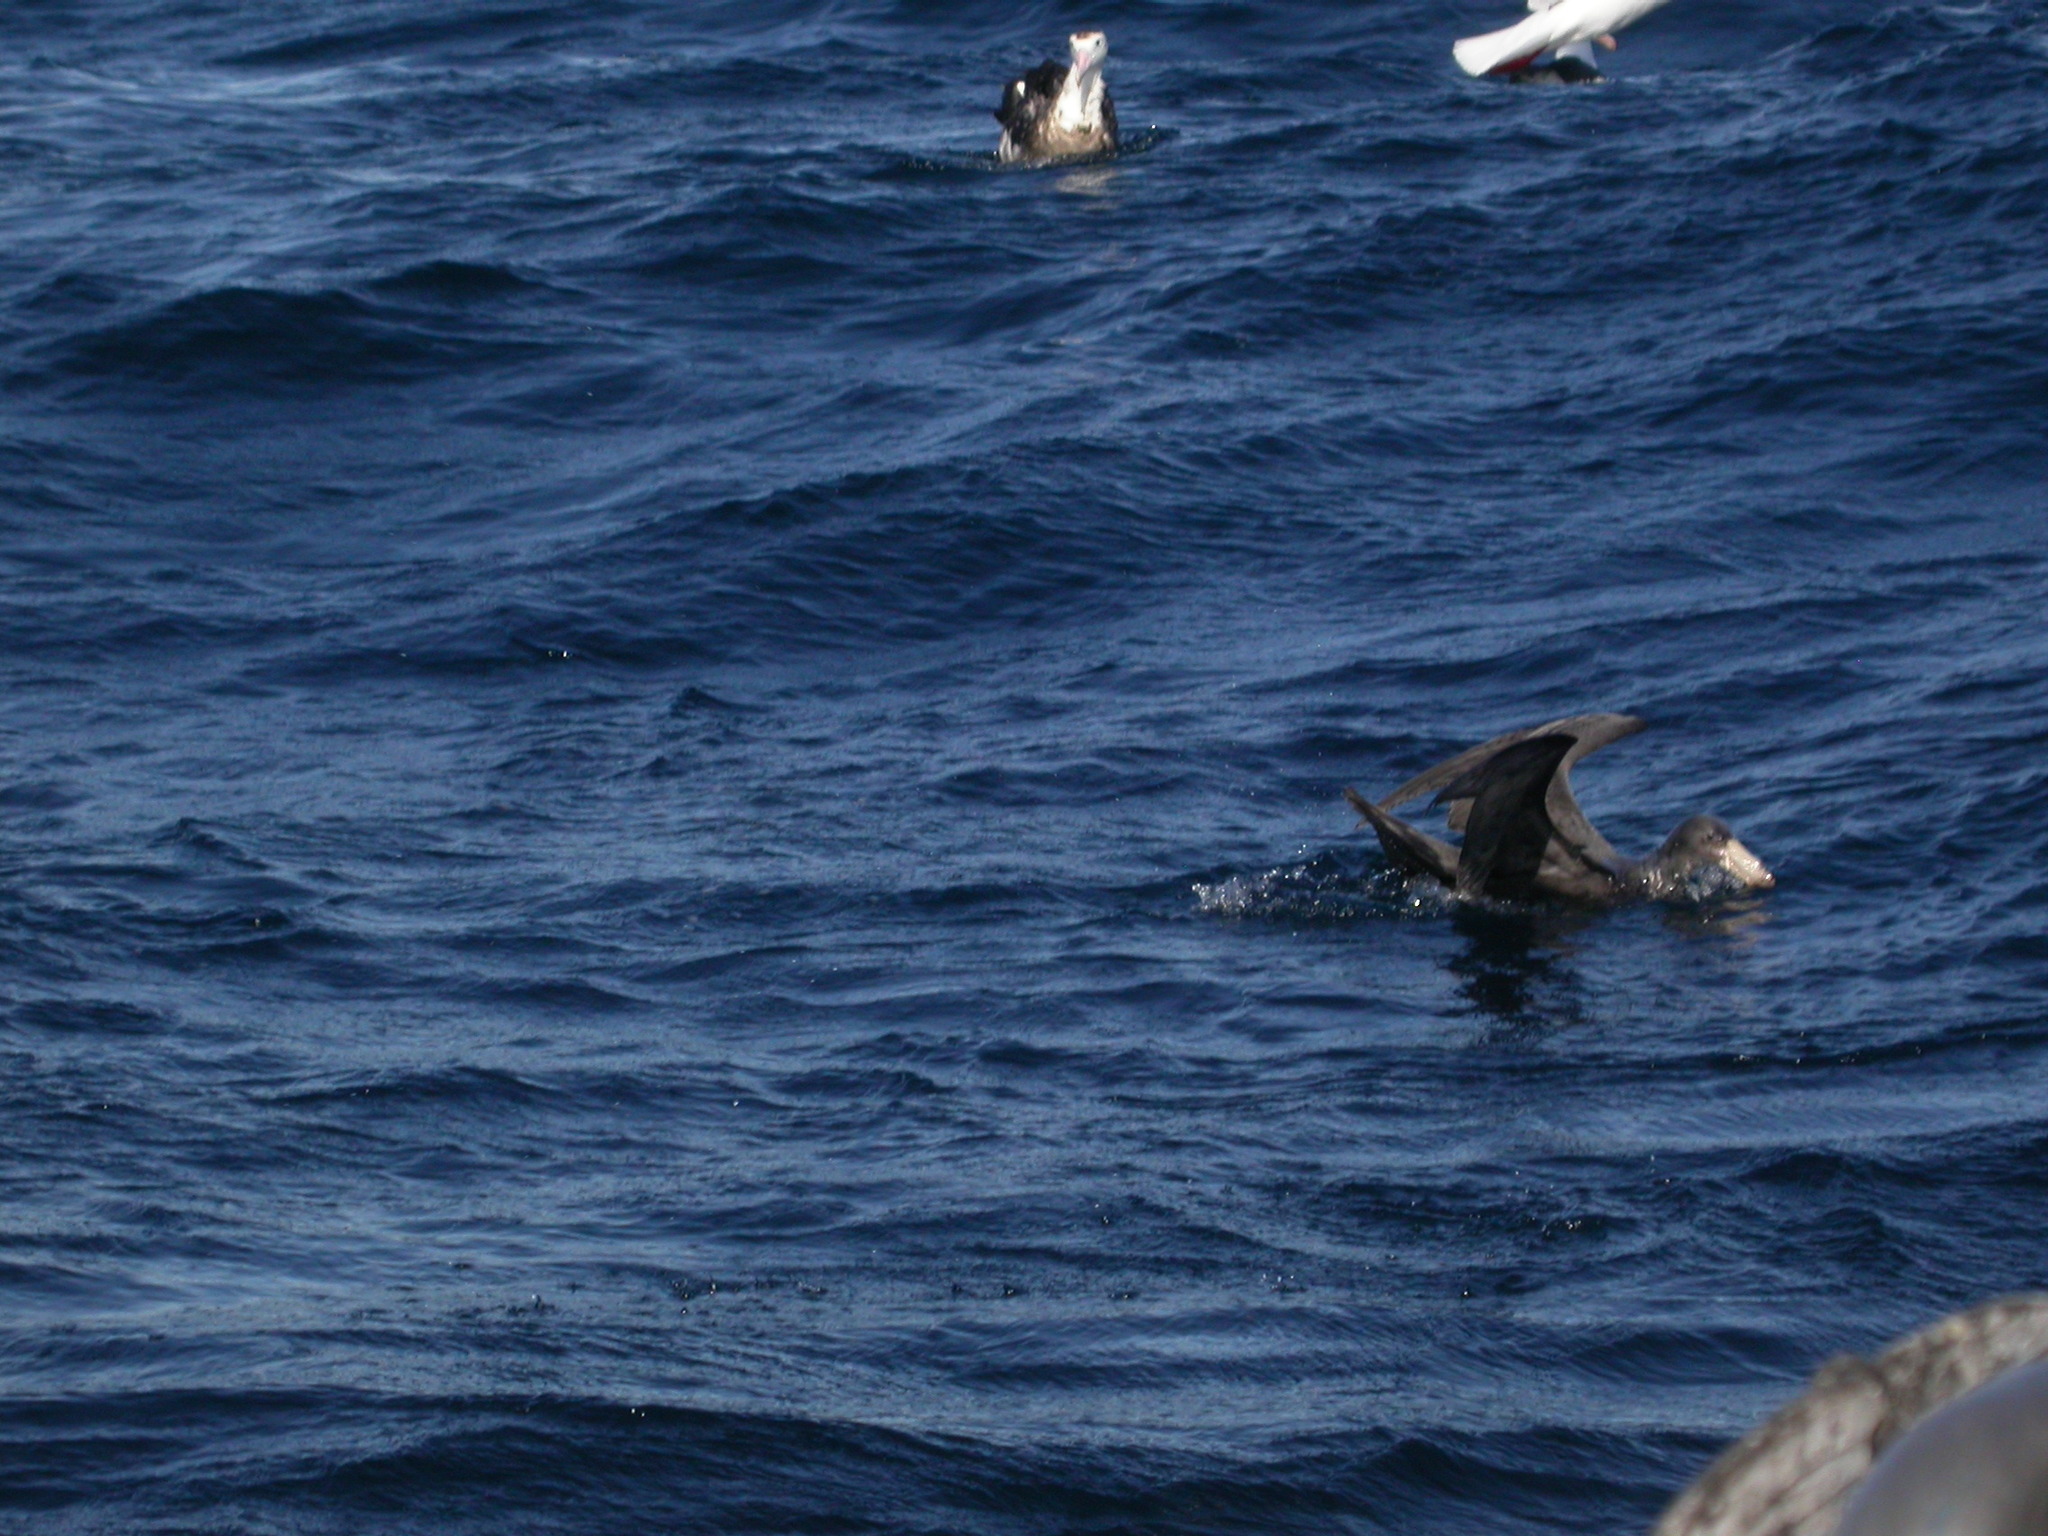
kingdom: Animalia
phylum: Chordata
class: Aves
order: Procellariiformes
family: Procellariidae
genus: Macronectes
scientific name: Macronectes halli
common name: Northern giant petrel
